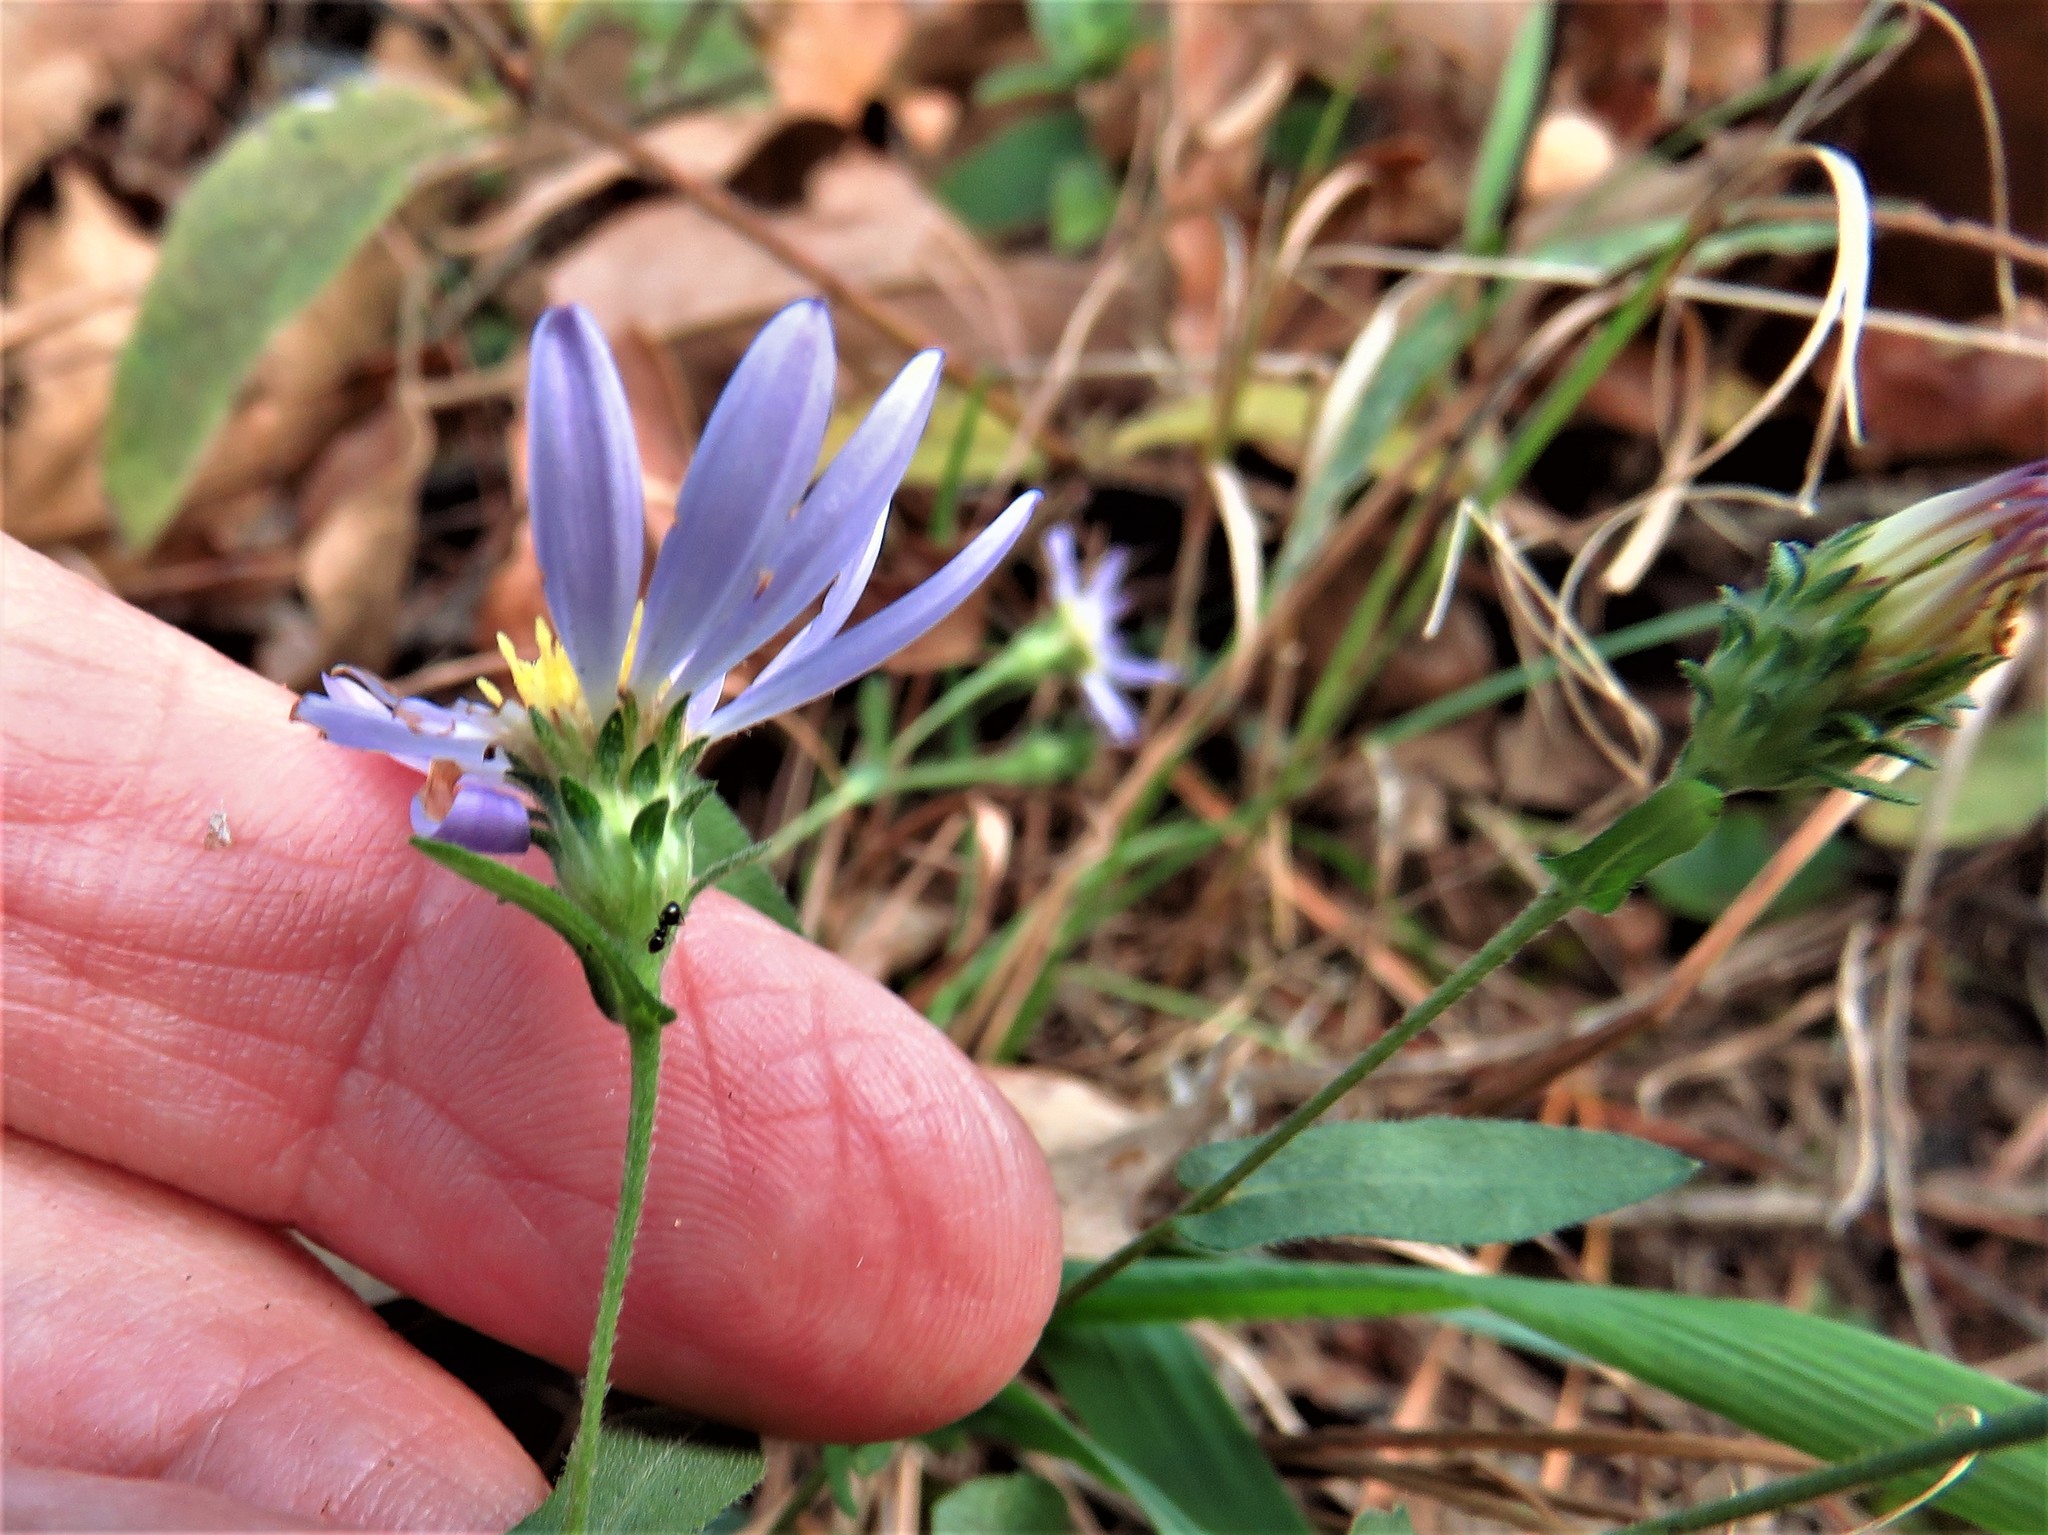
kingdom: Plantae
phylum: Tracheophyta
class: Magnoliopsida
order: Asterales
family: Asteraceae
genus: Symphyotrichum
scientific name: Symphyotrichum patens
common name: Late purple aster
